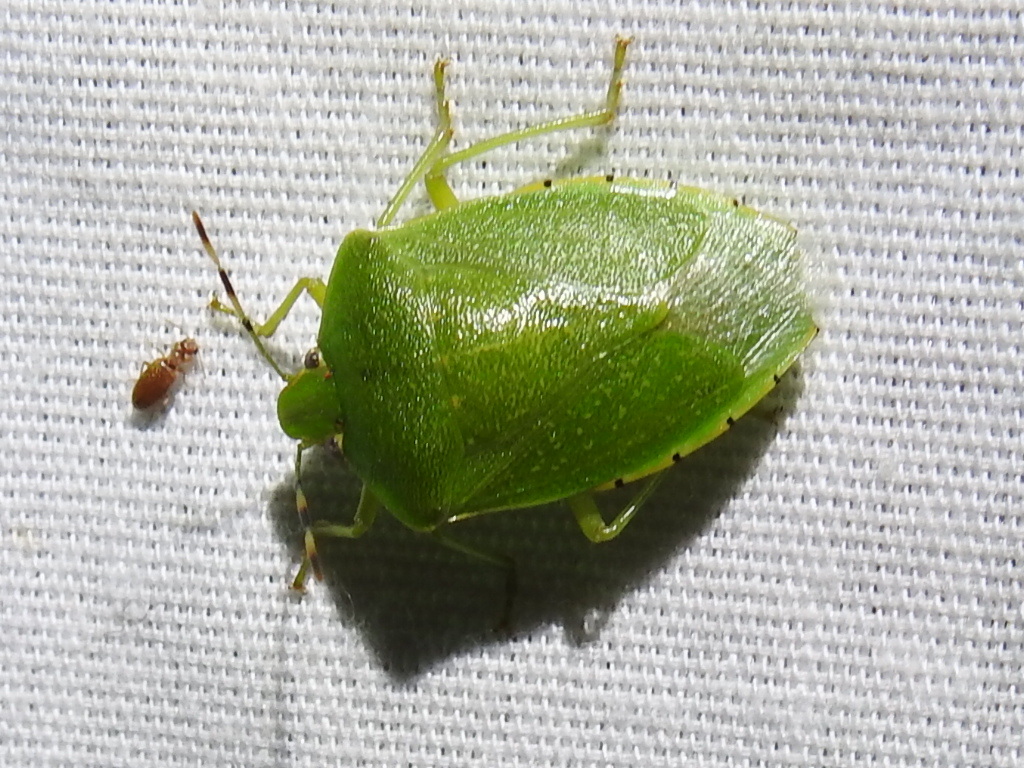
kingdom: Animalia
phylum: Arthropoda
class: Insecta
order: Hemiptera
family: Pentatomidae
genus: Chinavia
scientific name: Chinavia hilaris
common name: Green stink bug
